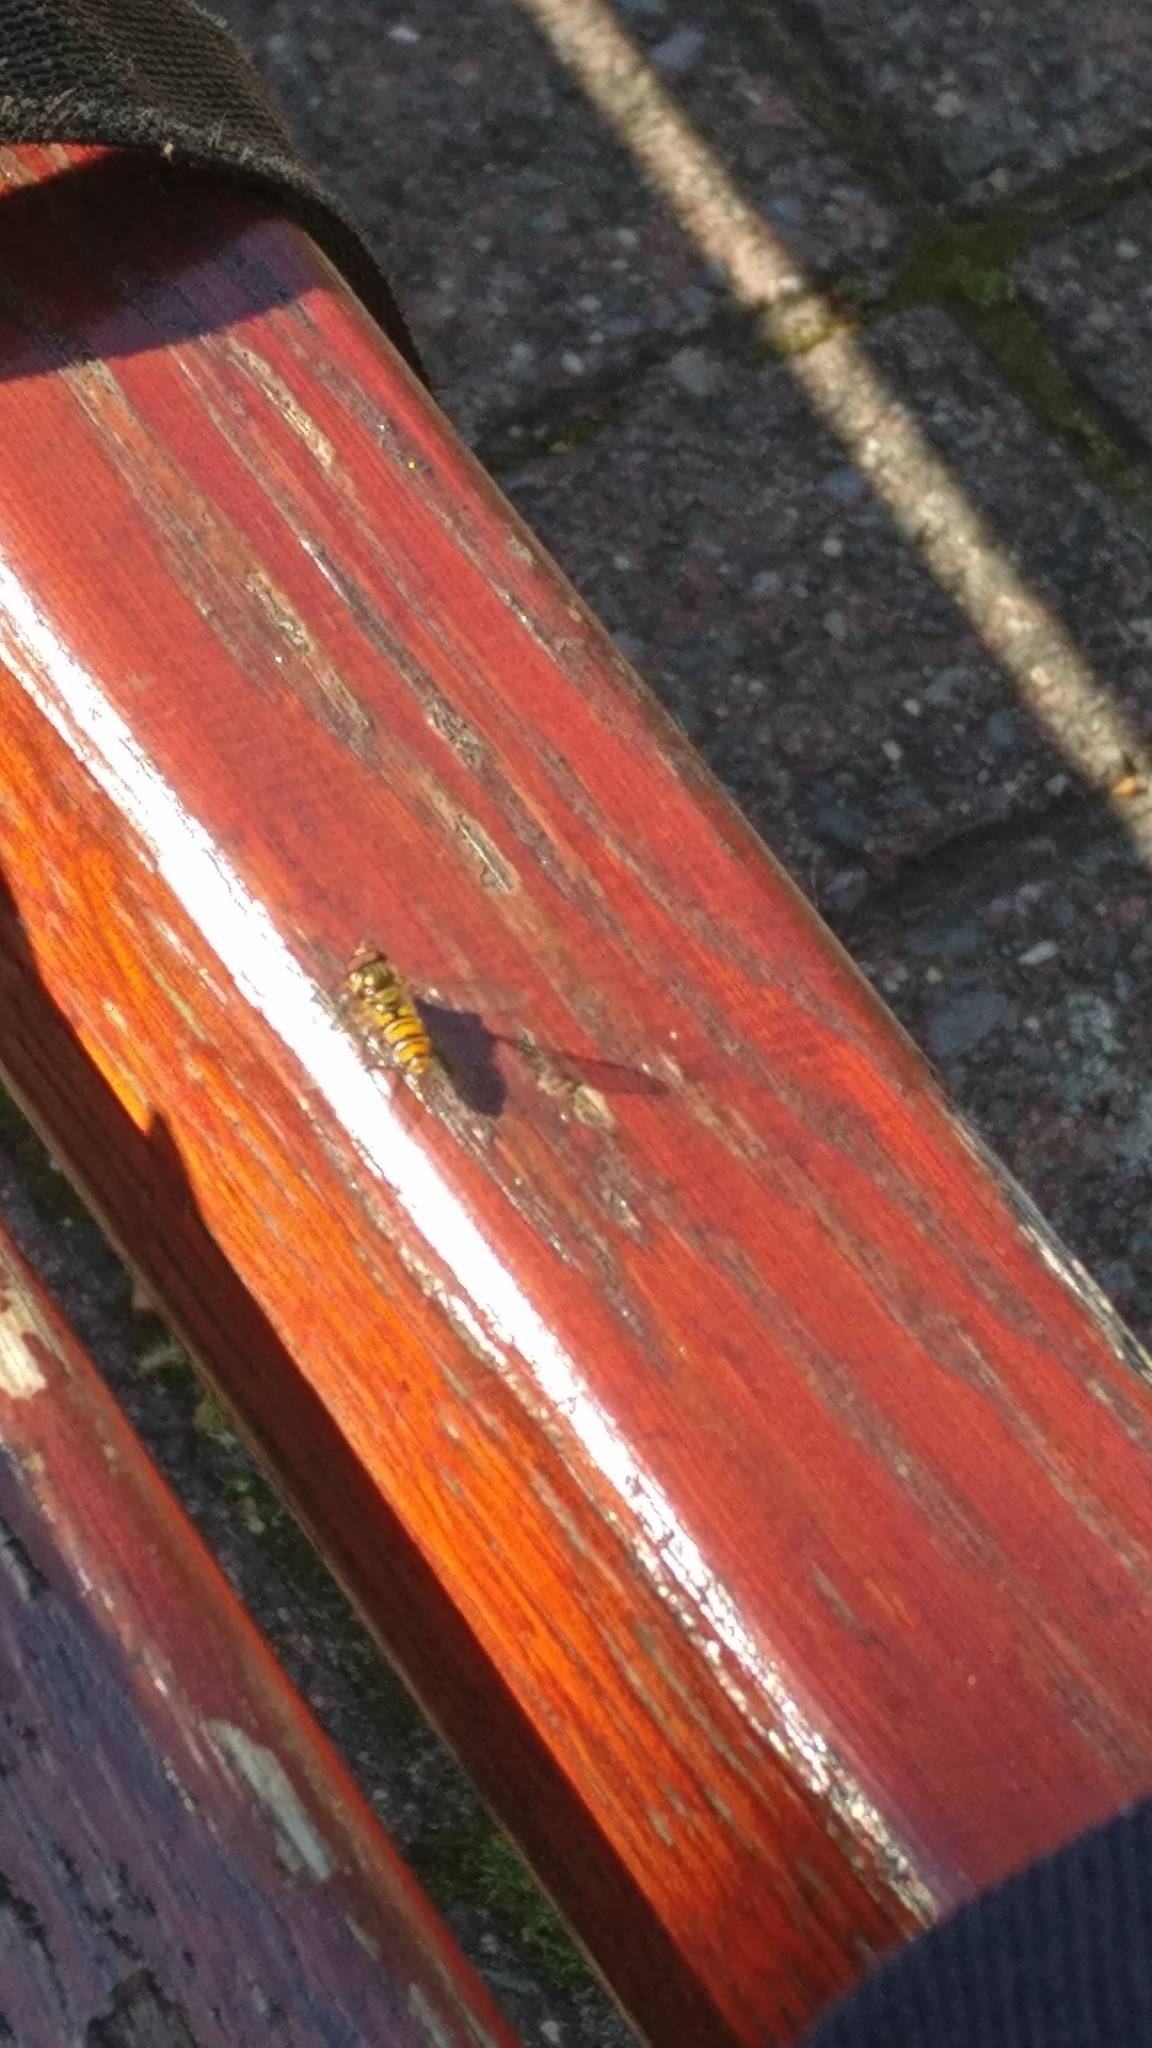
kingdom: Animalia
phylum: Arthropoda
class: Insecta
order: Diptera
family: Syrphidae
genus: Episyrphus
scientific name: Episyrphus balteatus
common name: Marmalade hoverfly
